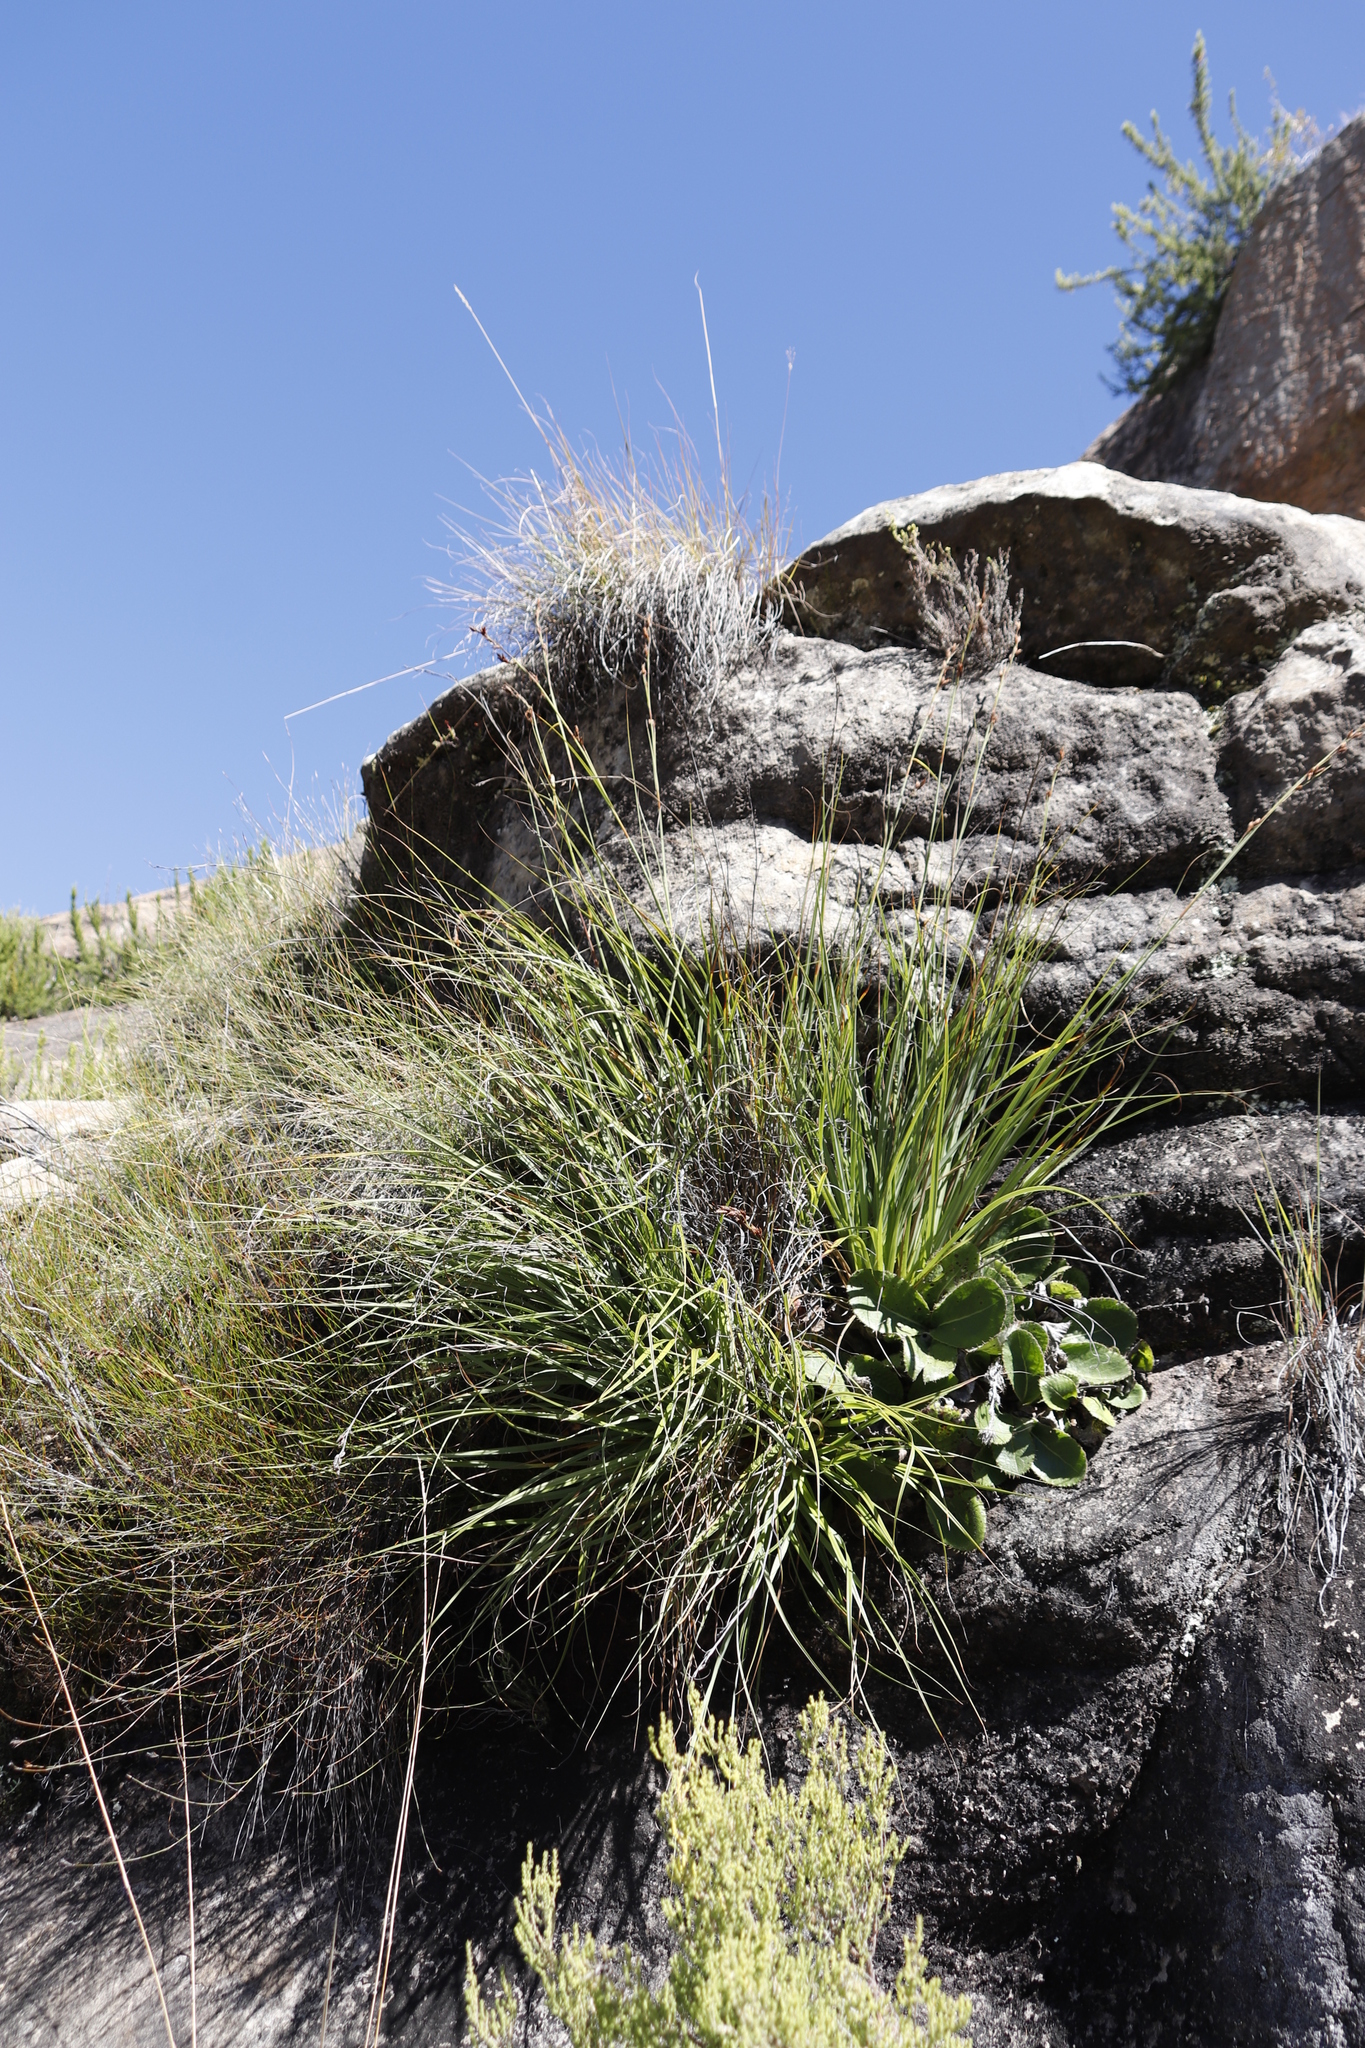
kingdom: Plantae
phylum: Tracheophyta
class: Liliopsida
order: Poales
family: Cyperaceae
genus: Tetraria
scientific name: Tetraria triangularis
